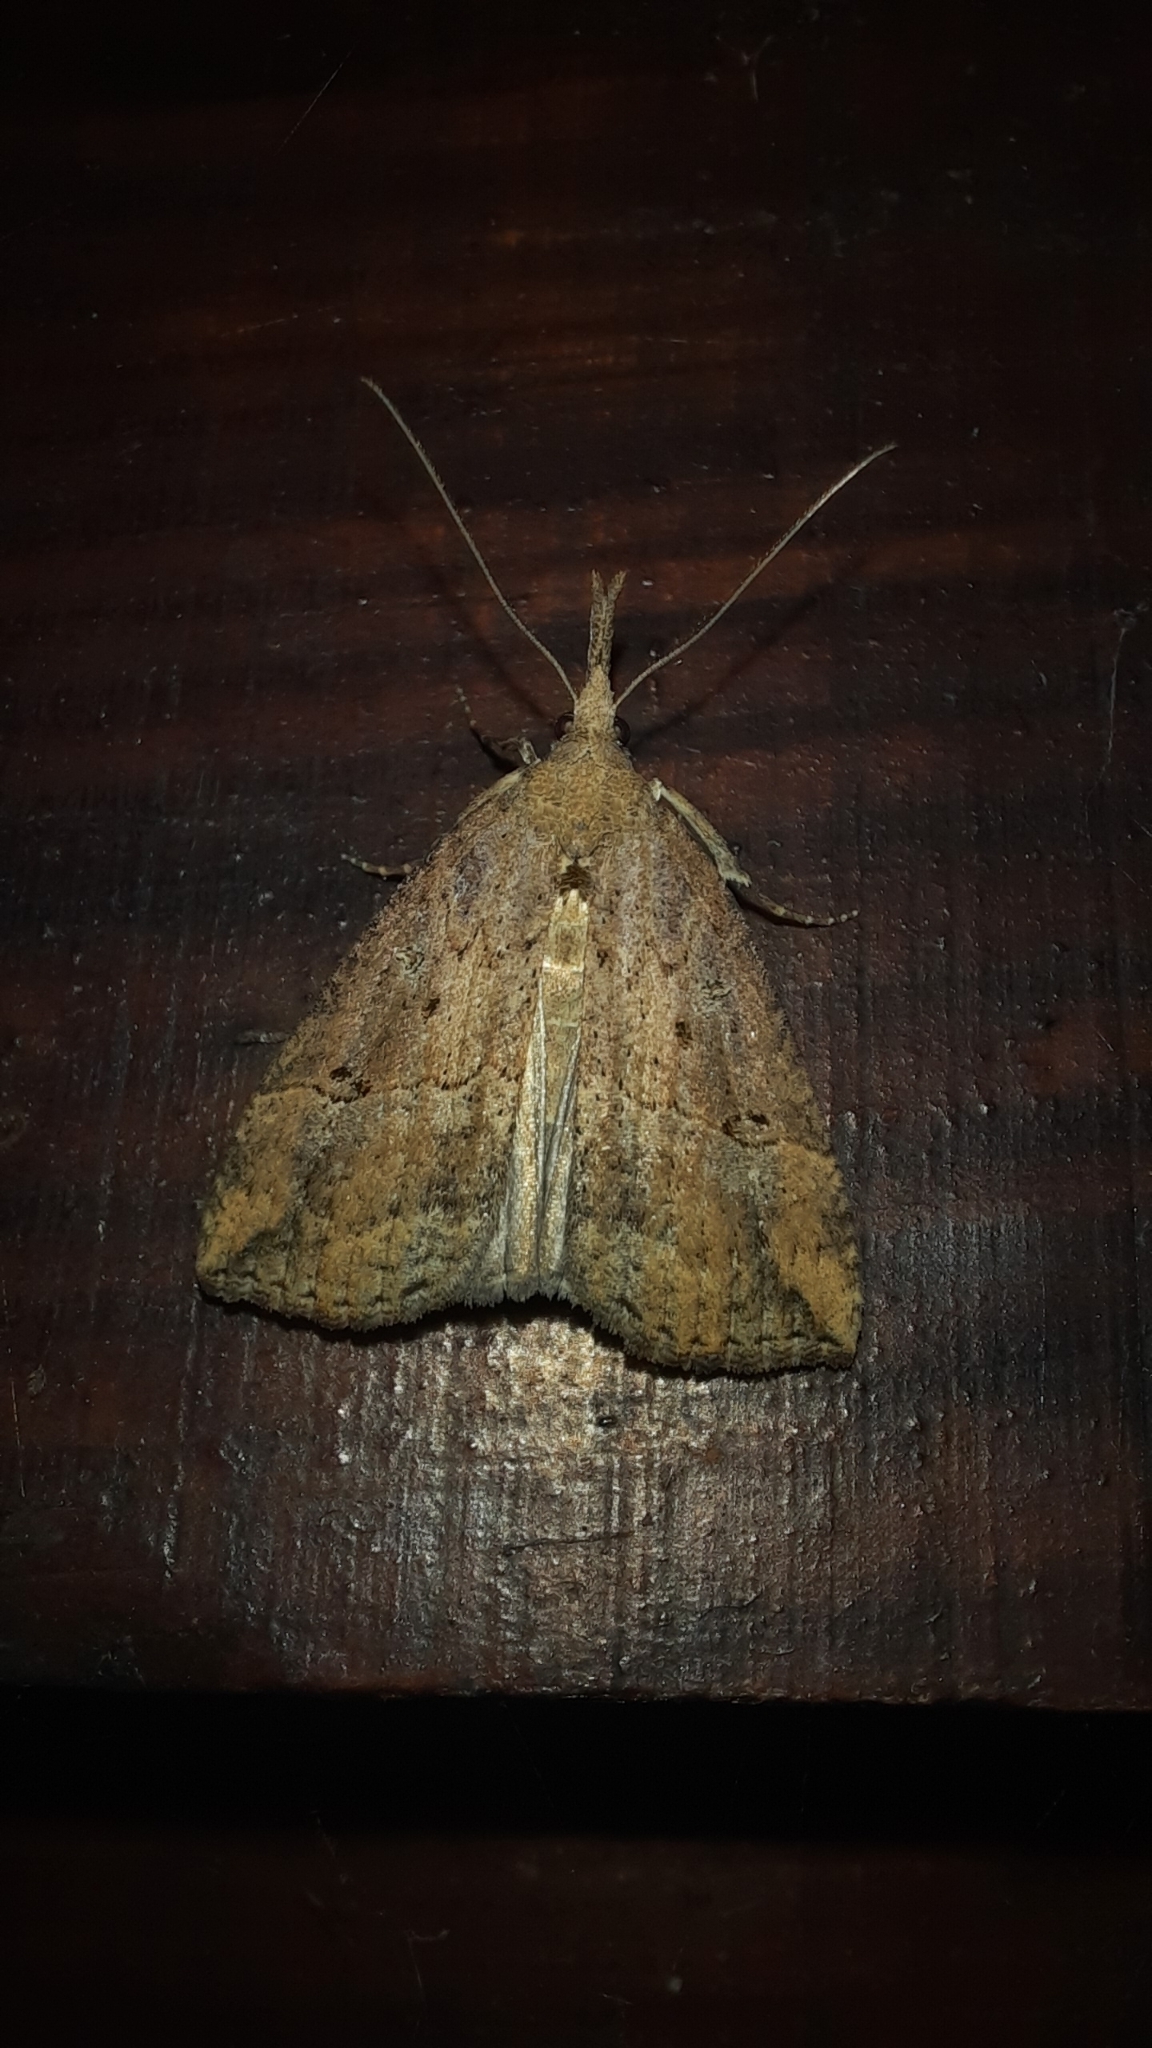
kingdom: Animalia
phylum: Arthropoda
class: Insecta
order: Lepidoptera
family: Erebidae
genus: Hypena
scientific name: Hypena rostralis
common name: Buttoned snout
